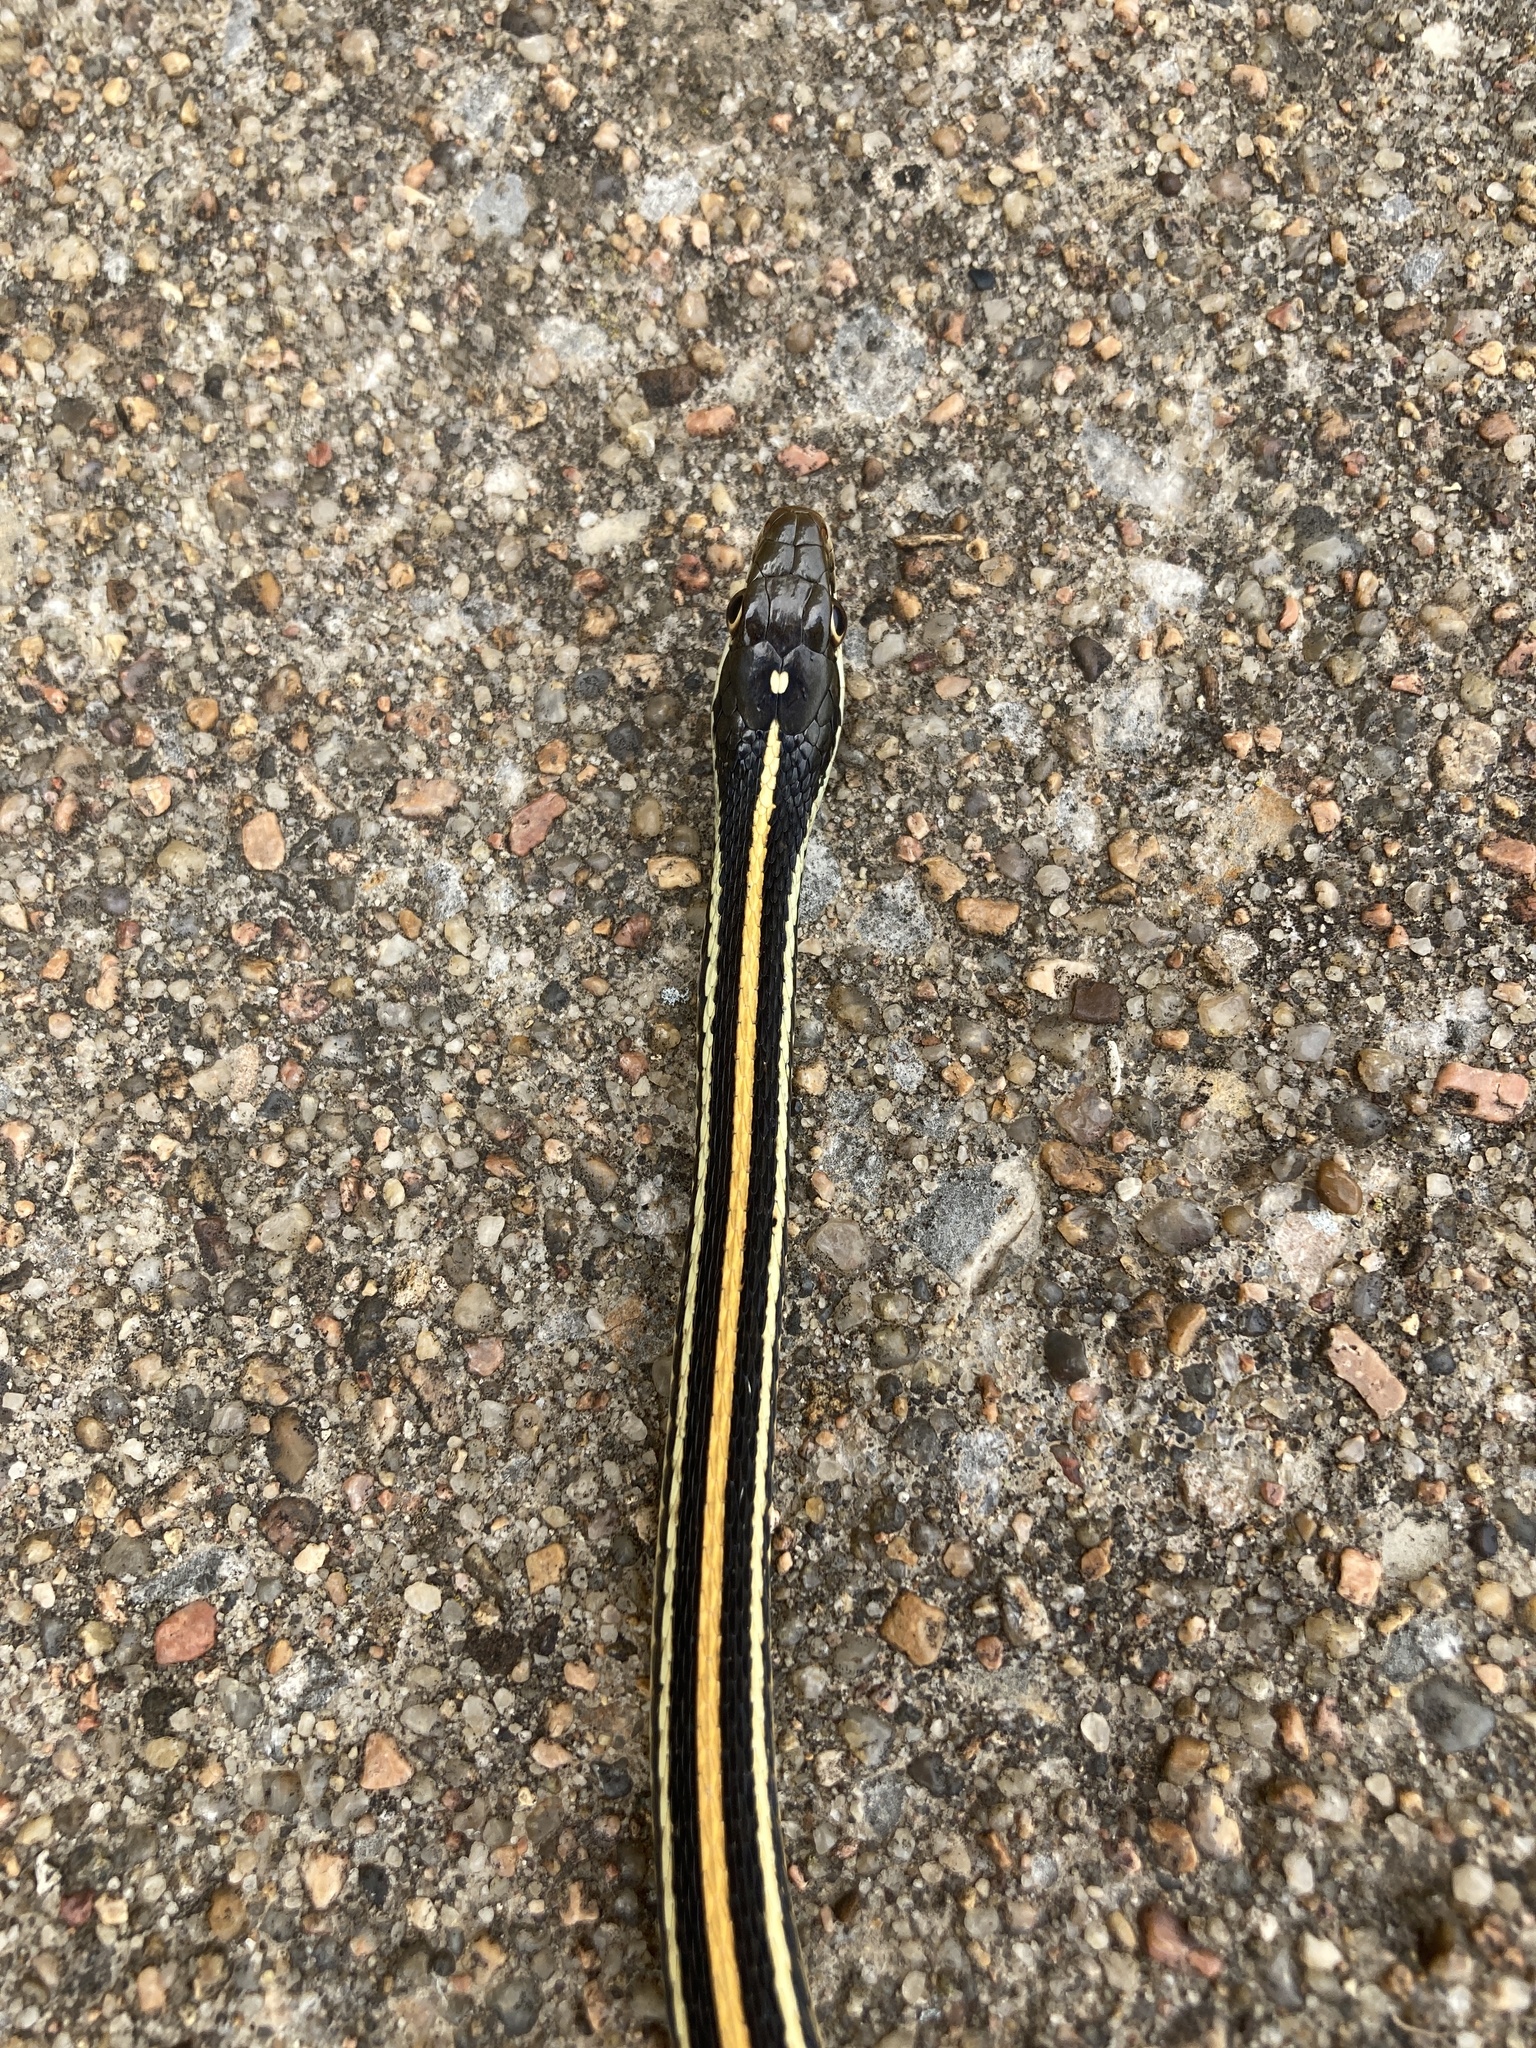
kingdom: Animalia
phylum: Chordata
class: Squamata
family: Colubridae
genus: Thamnophis
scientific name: Thamnophis proximus
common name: Western ribbon snake
